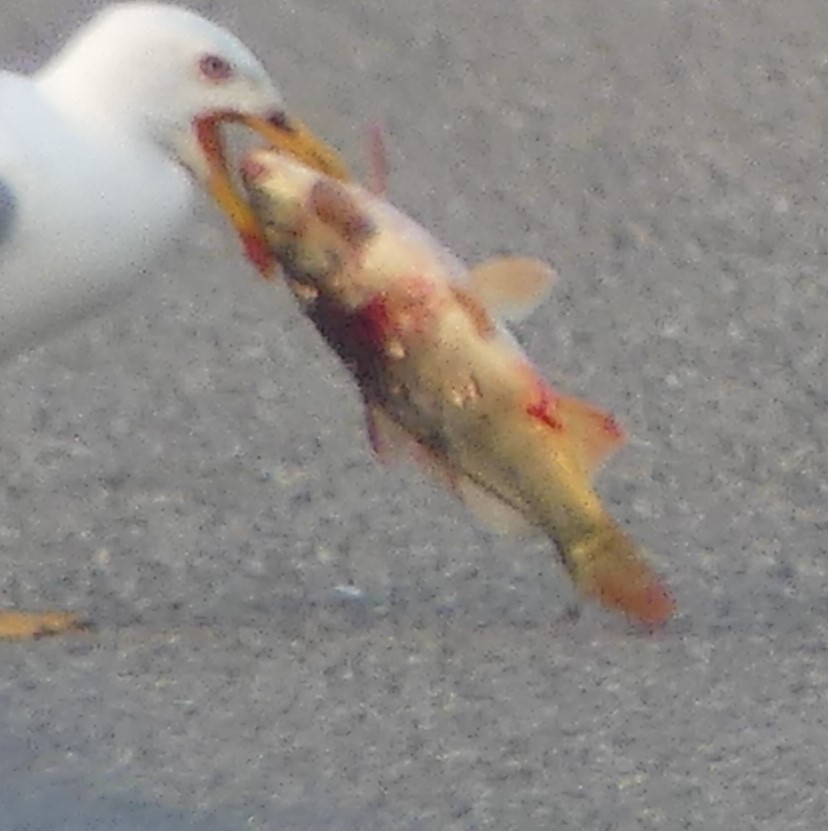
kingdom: Animalia
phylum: Chordata
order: Cypriniformes
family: Cyprinidae
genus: Cyprinus
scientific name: Cyprinus carpio
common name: Common carp
